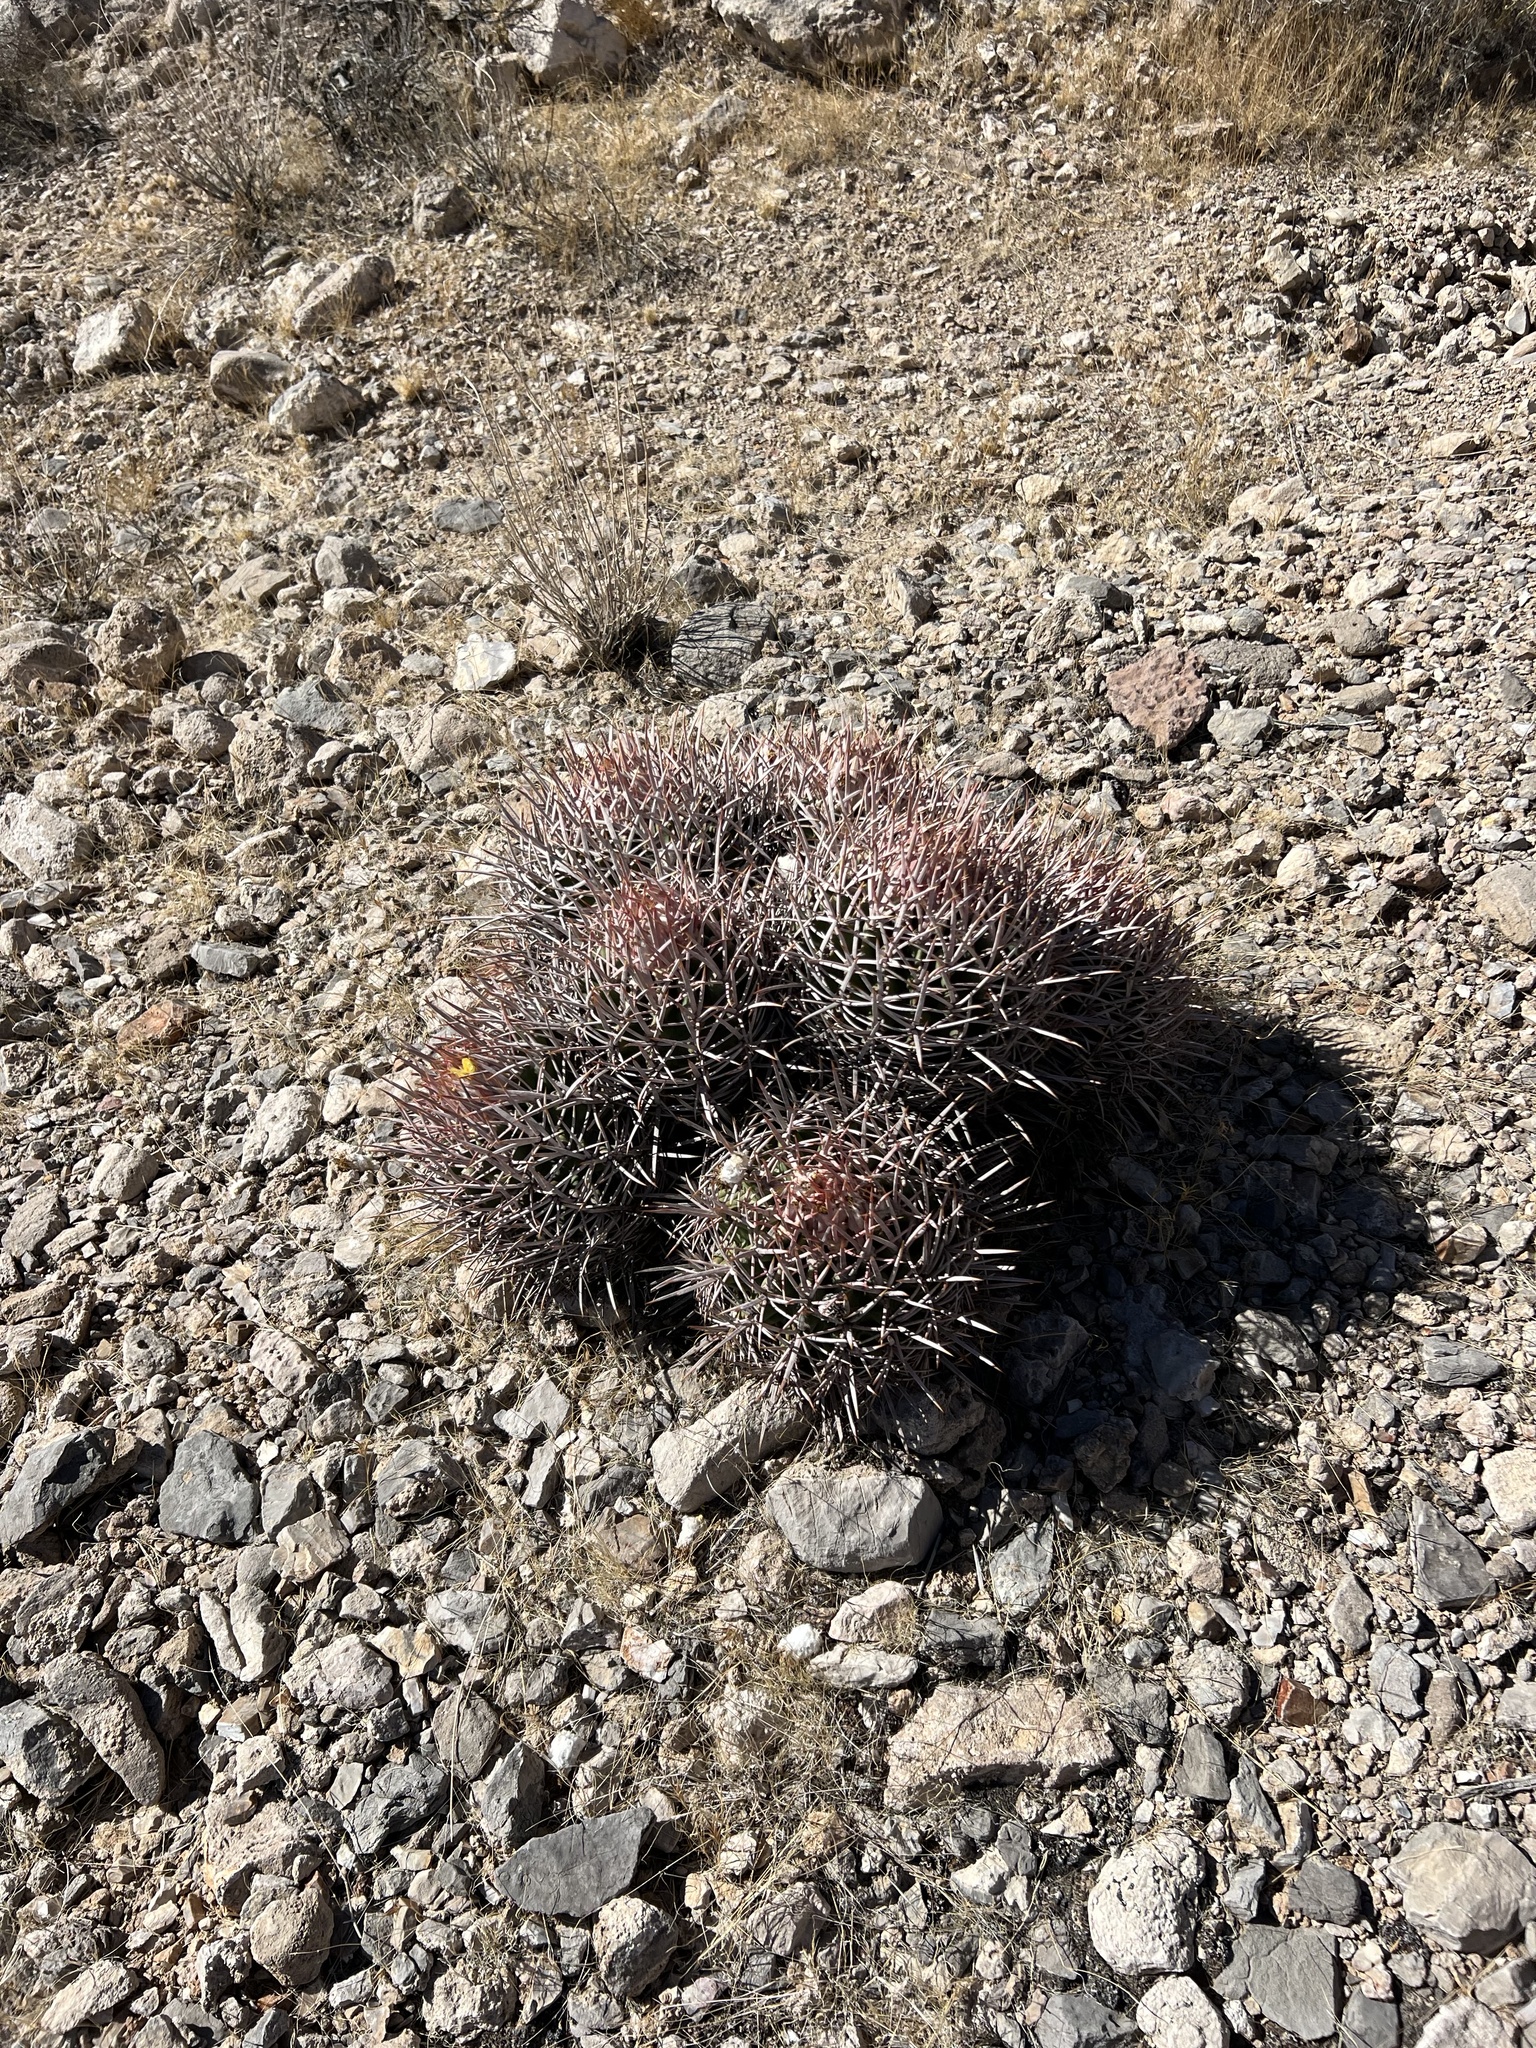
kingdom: Plantae
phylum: Tracheophyta
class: Magnoliopsida
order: Caryophyllales
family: Cactaceae
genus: Echinocactus
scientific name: Echinocactus polycephalus
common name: Cottontop cactus
